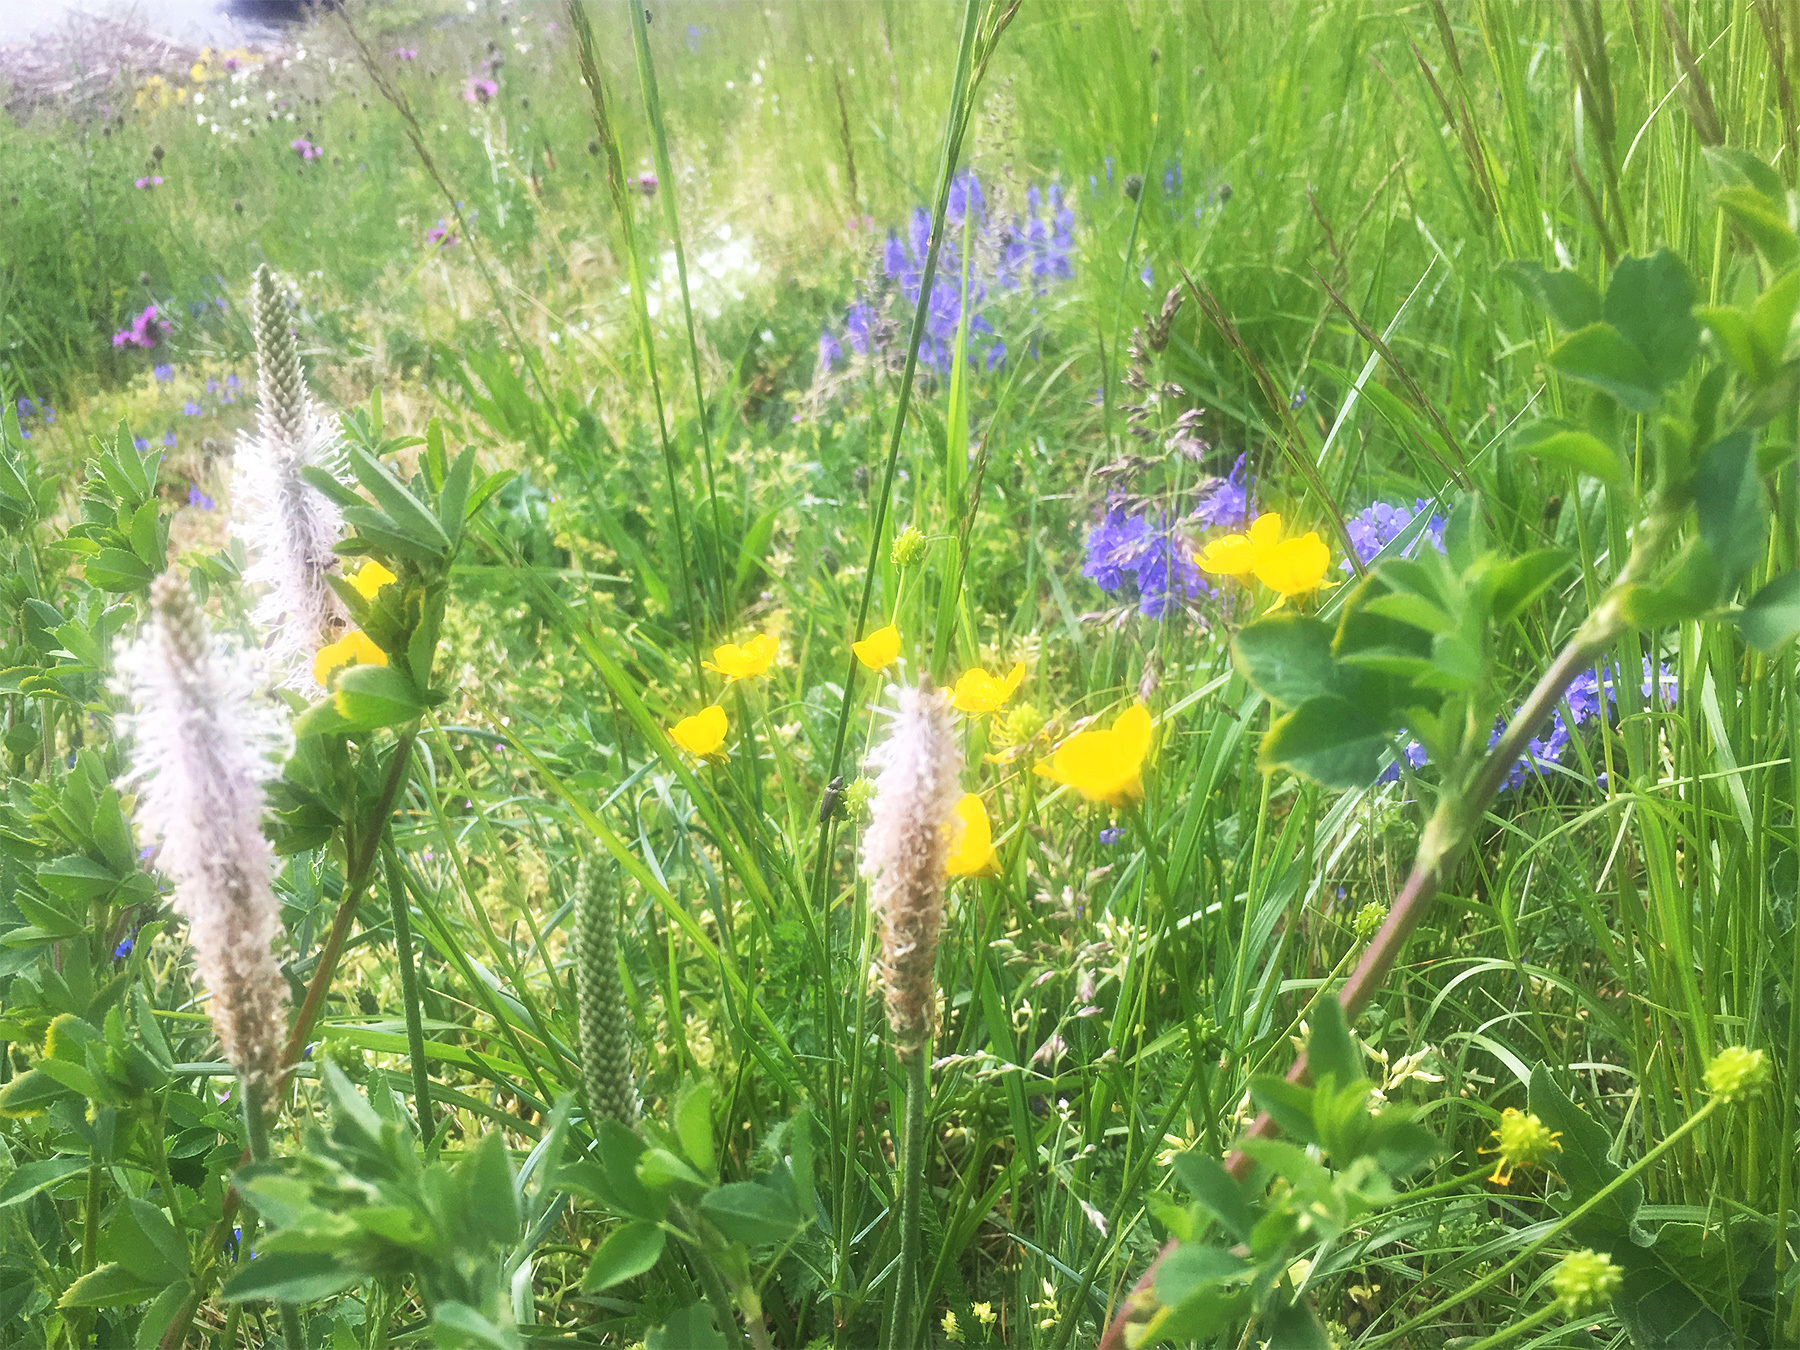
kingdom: Plantae
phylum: Tracheophyta
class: Magnoliopsida
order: Lamiales
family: Plantaginaceae
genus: Plantago
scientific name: Plantago media
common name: Hoary plantain
